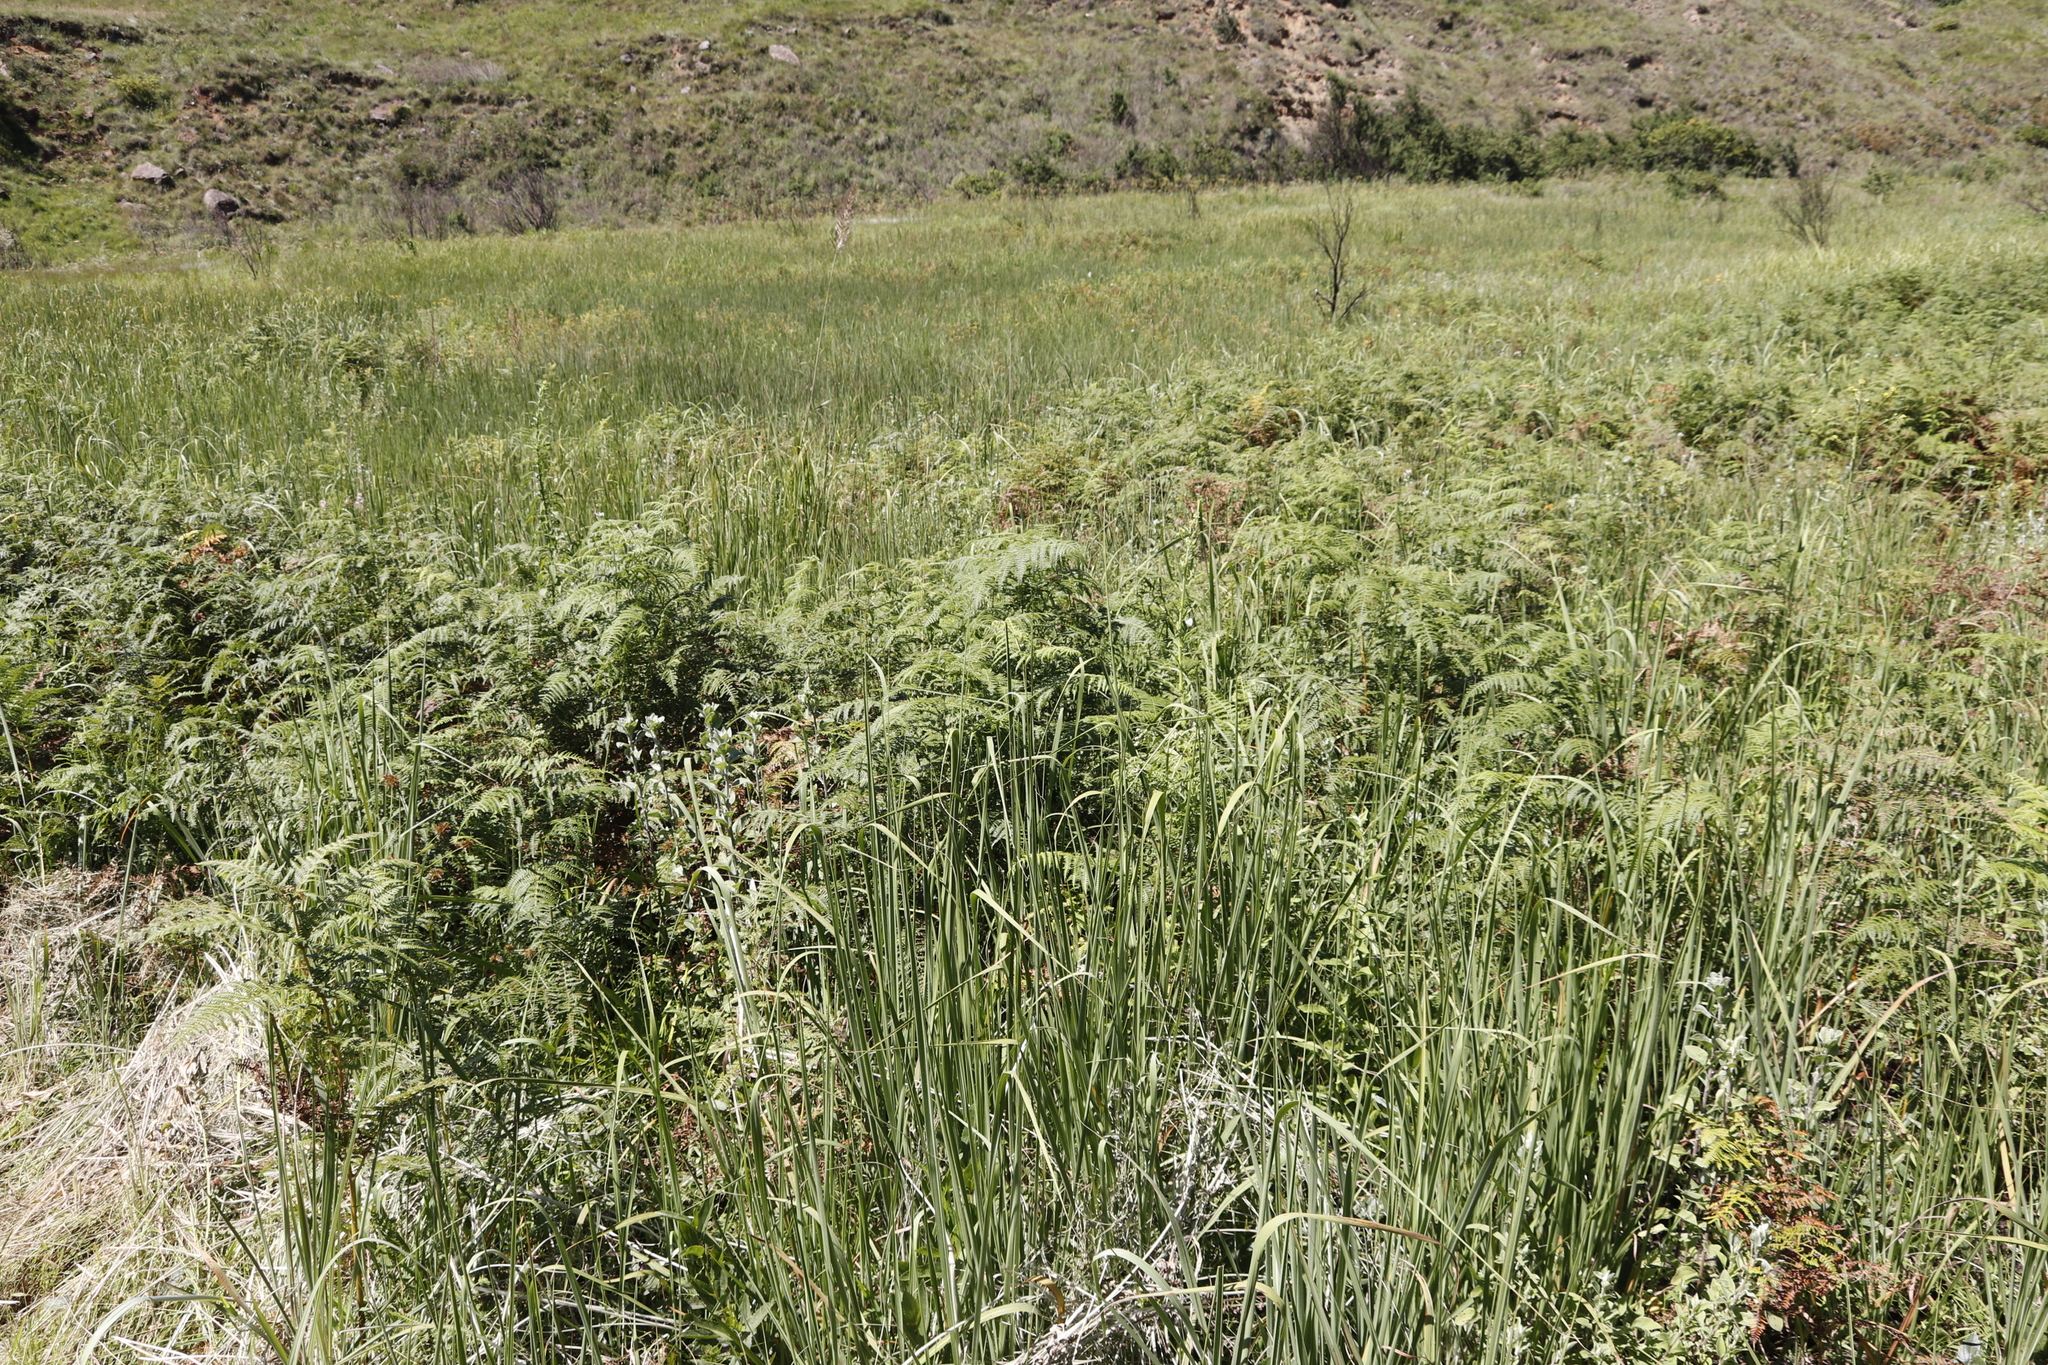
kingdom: Plantae
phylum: Tracheophyta
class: Polypodiopsida
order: Polypodiales
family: Dennstaedtiaceae
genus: Pteridium
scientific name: Pteridium aquilinum
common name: Bracken
